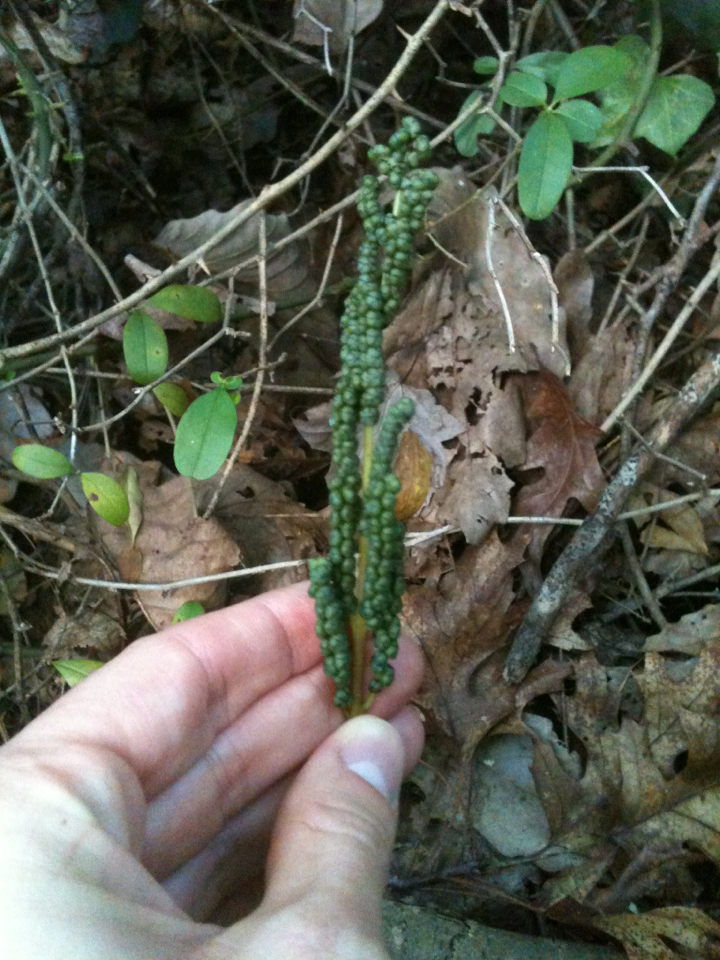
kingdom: Plantae
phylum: Tracheophyta
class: Polypodiopsida
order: Polypodiales
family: Onocleaceae
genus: Onoclea
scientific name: Onoclea sensibilis
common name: Sensitive fern
